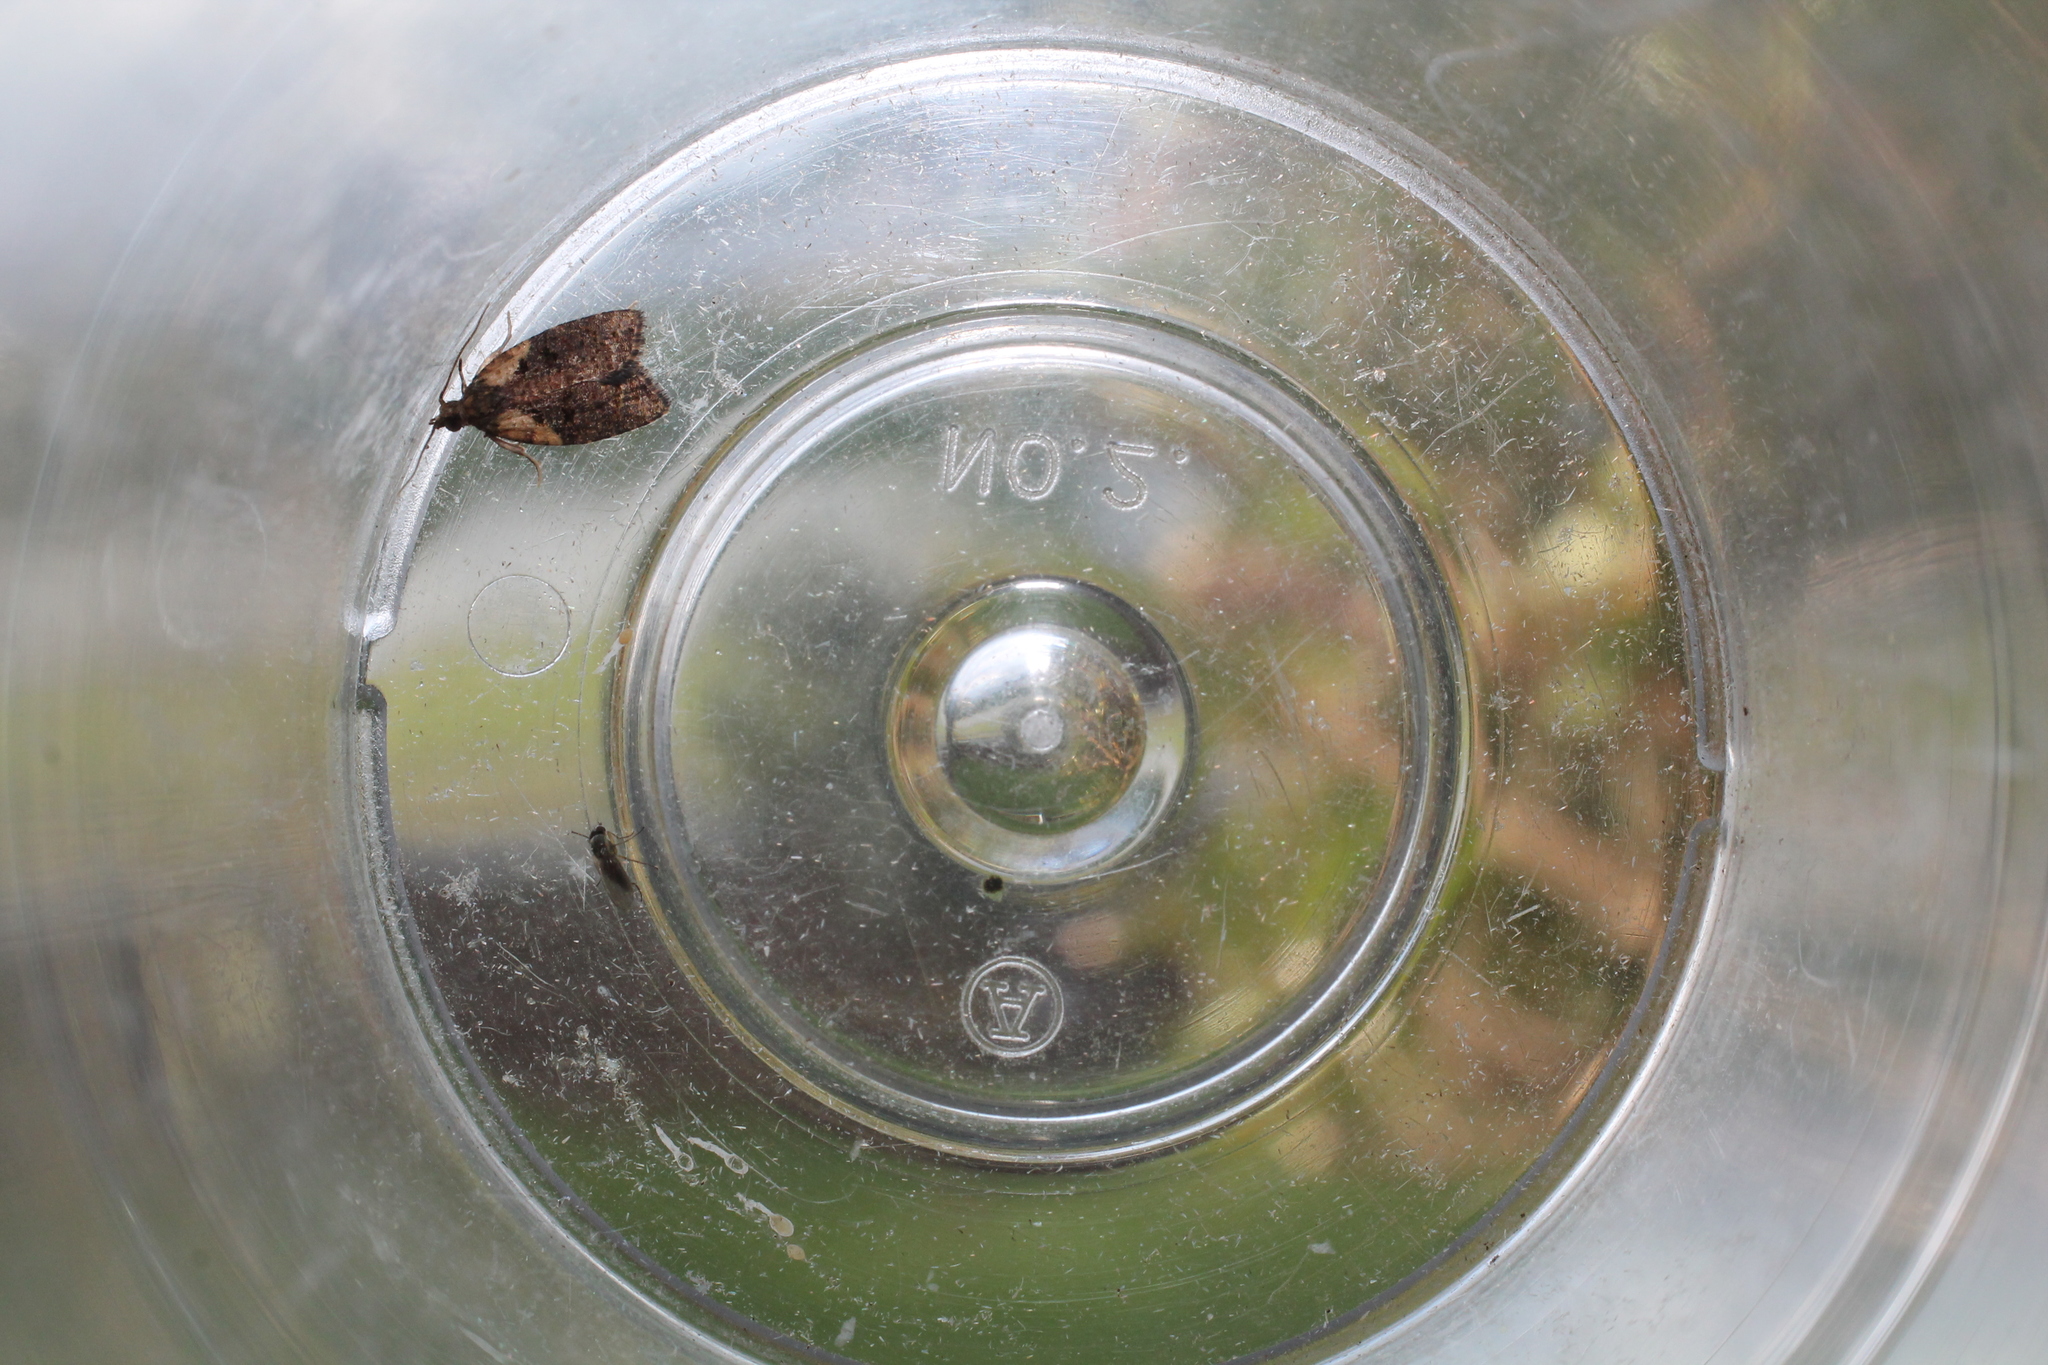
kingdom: Animalia
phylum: Arthropoda
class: Insecta
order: Lepidoptera
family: Tortricidae
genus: Capua
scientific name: Capua intractana
